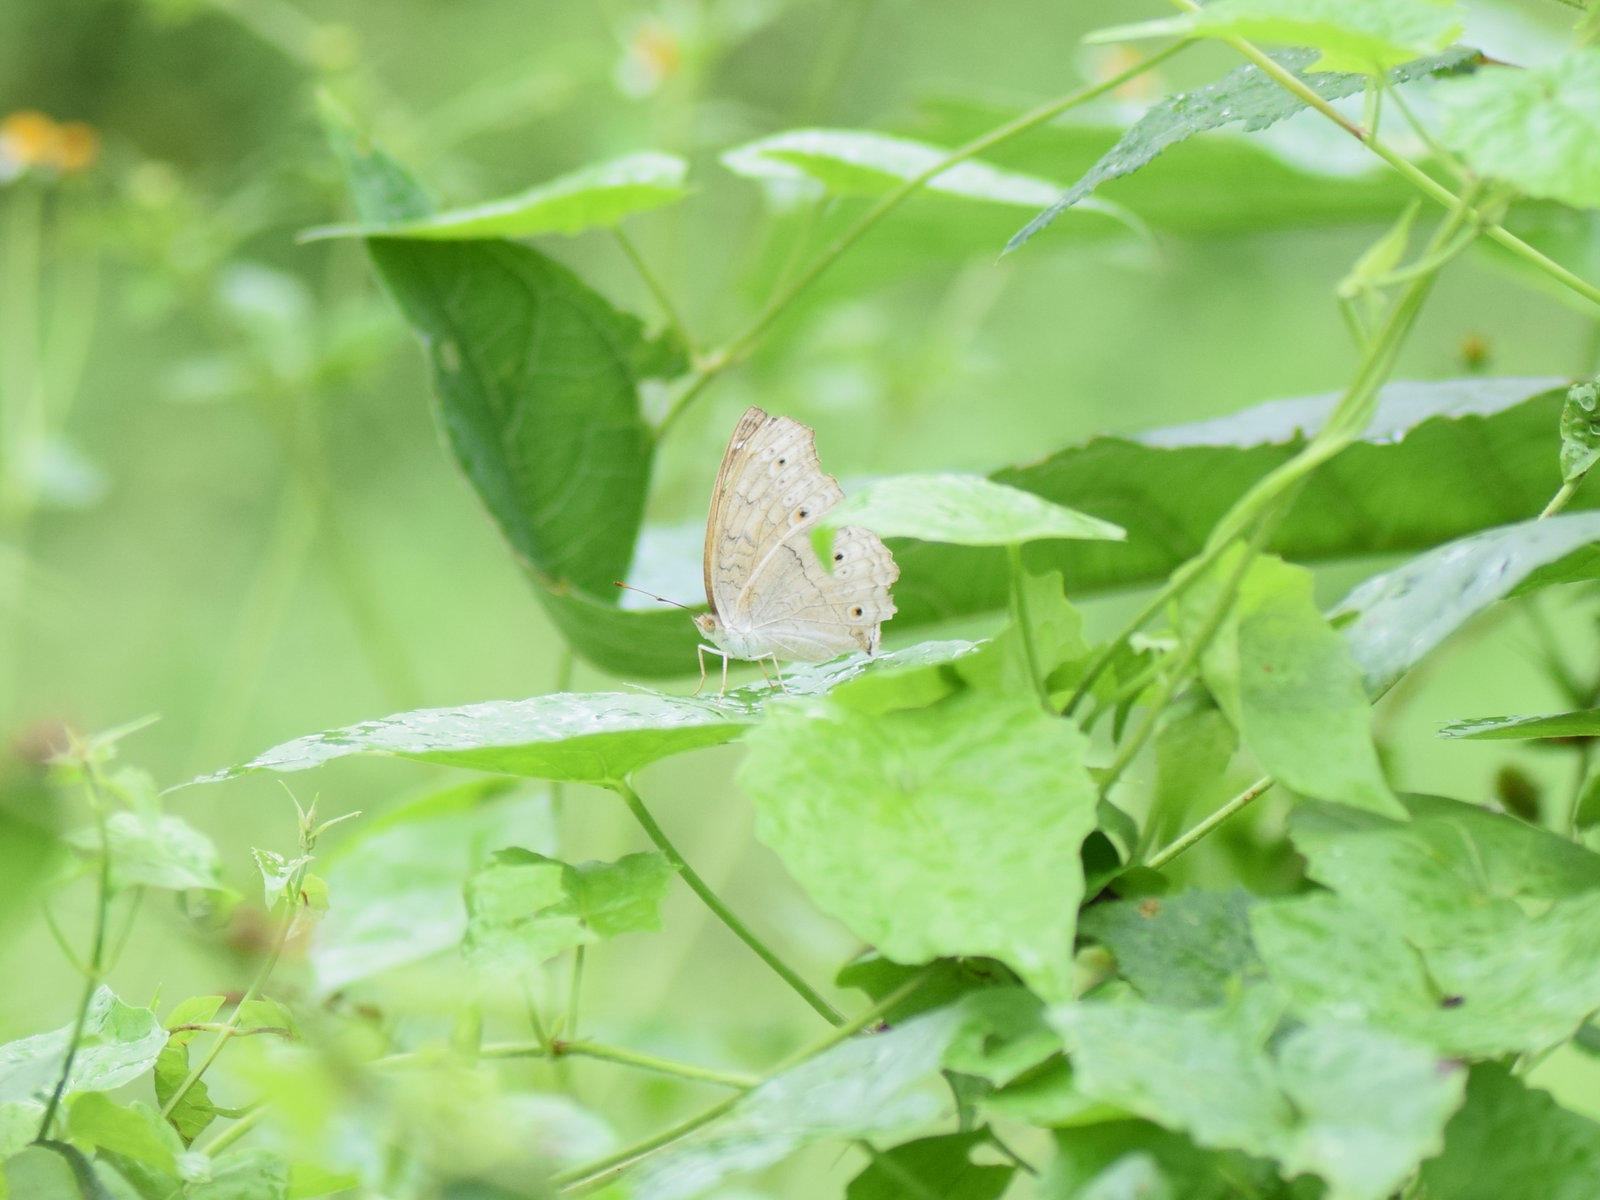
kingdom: Animalia
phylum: Arthropoda
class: Insecta
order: Lepidoptera
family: Nymphalidae
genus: Junonia
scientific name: Junonia atlites
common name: Grey pansy
